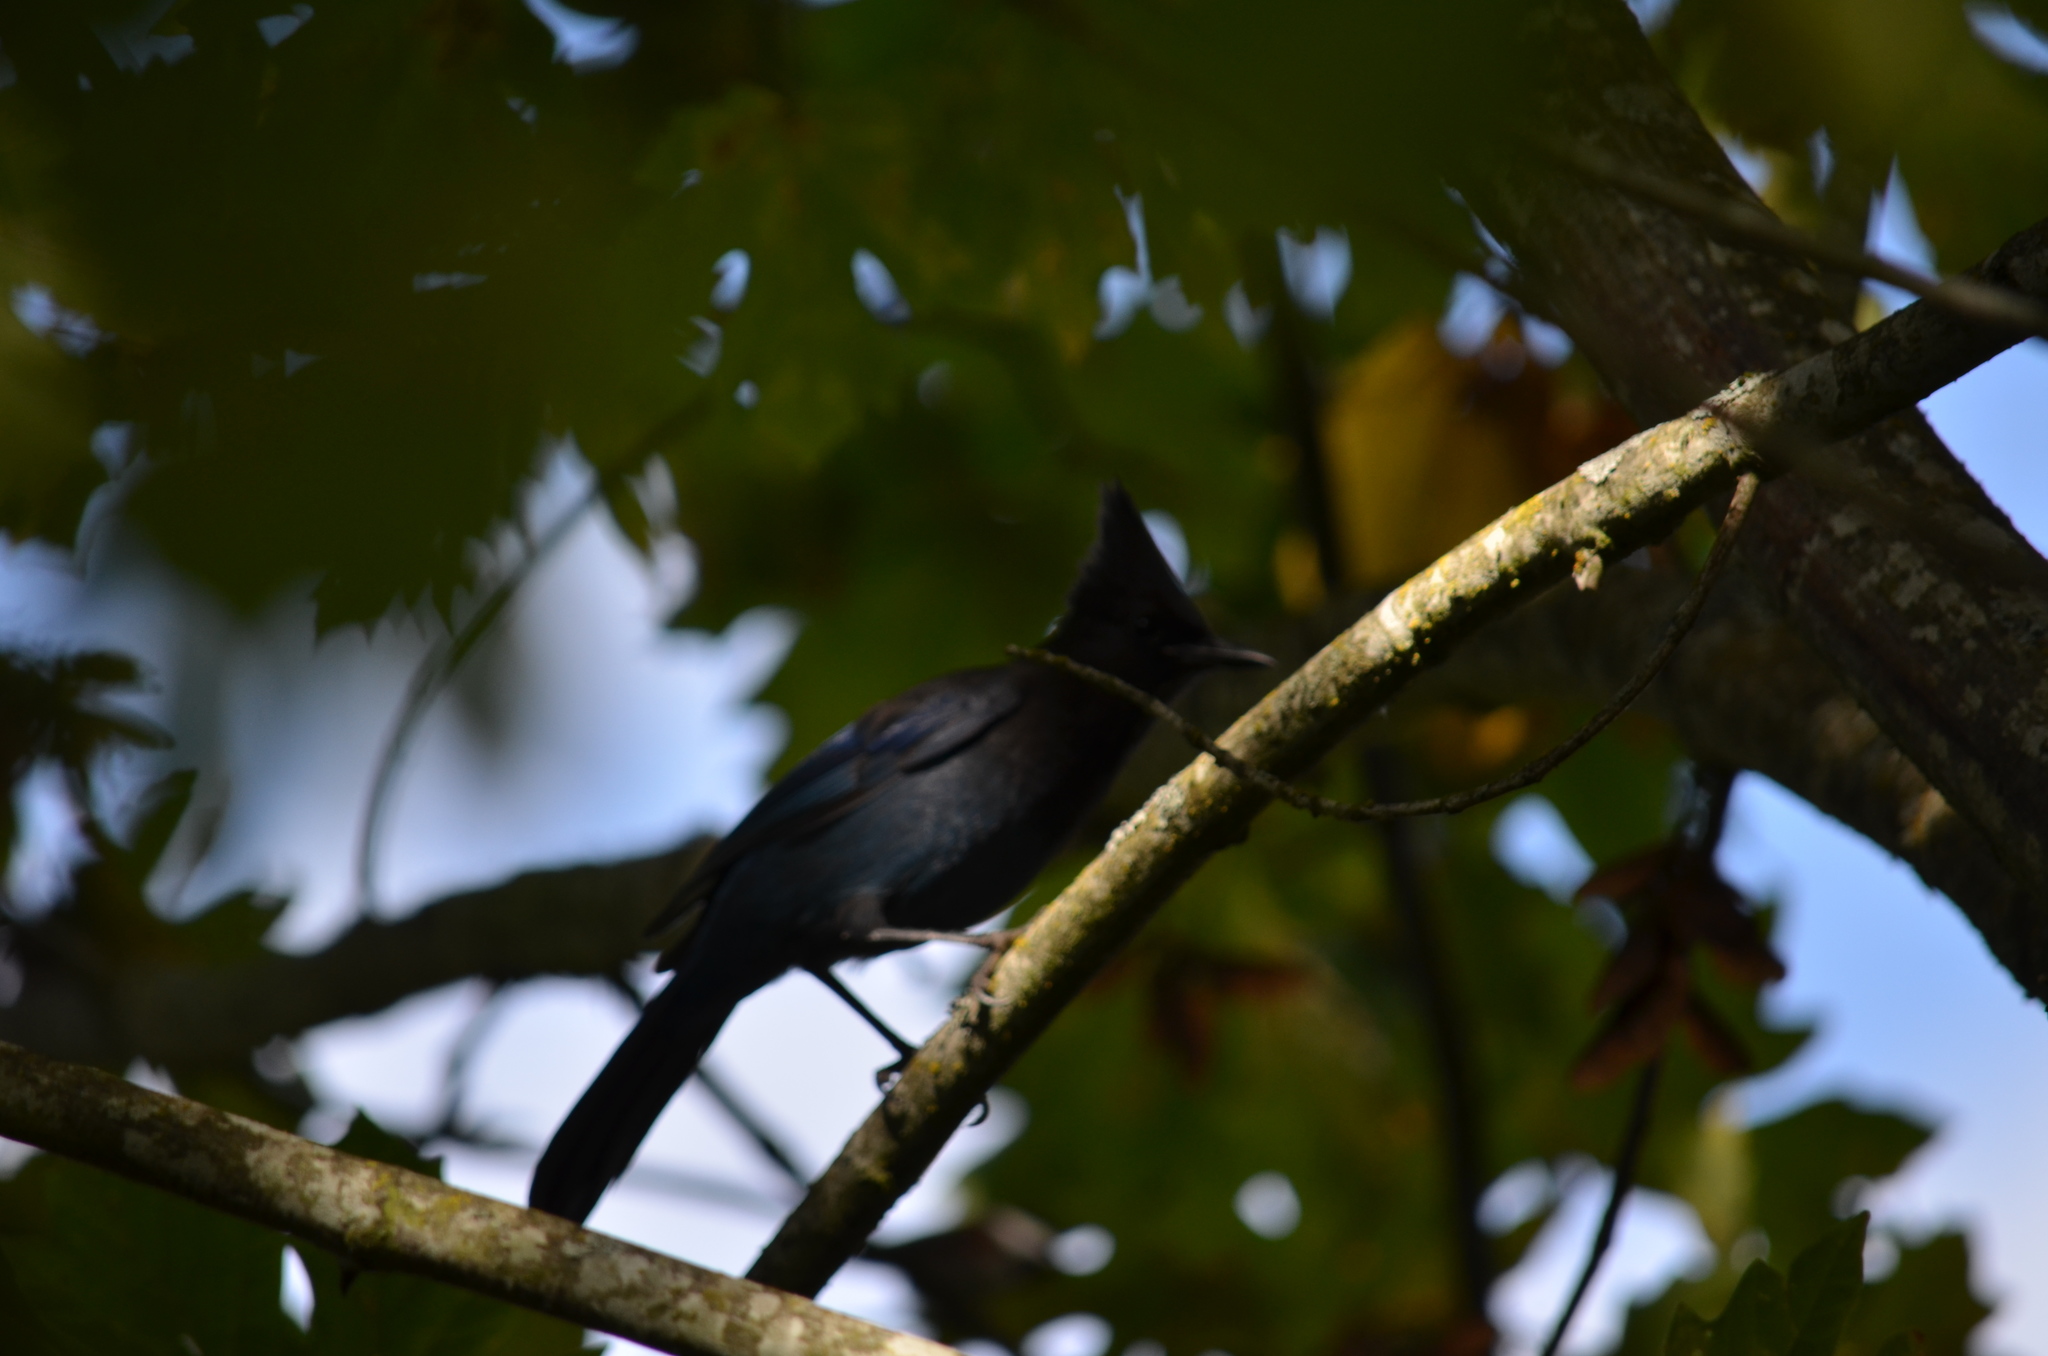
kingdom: Animalia
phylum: Chordata
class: Aves
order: Passeriformes
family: Corvidae
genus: Cyanocitta
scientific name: Cyanocitta stelleri
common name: Steller's jay
